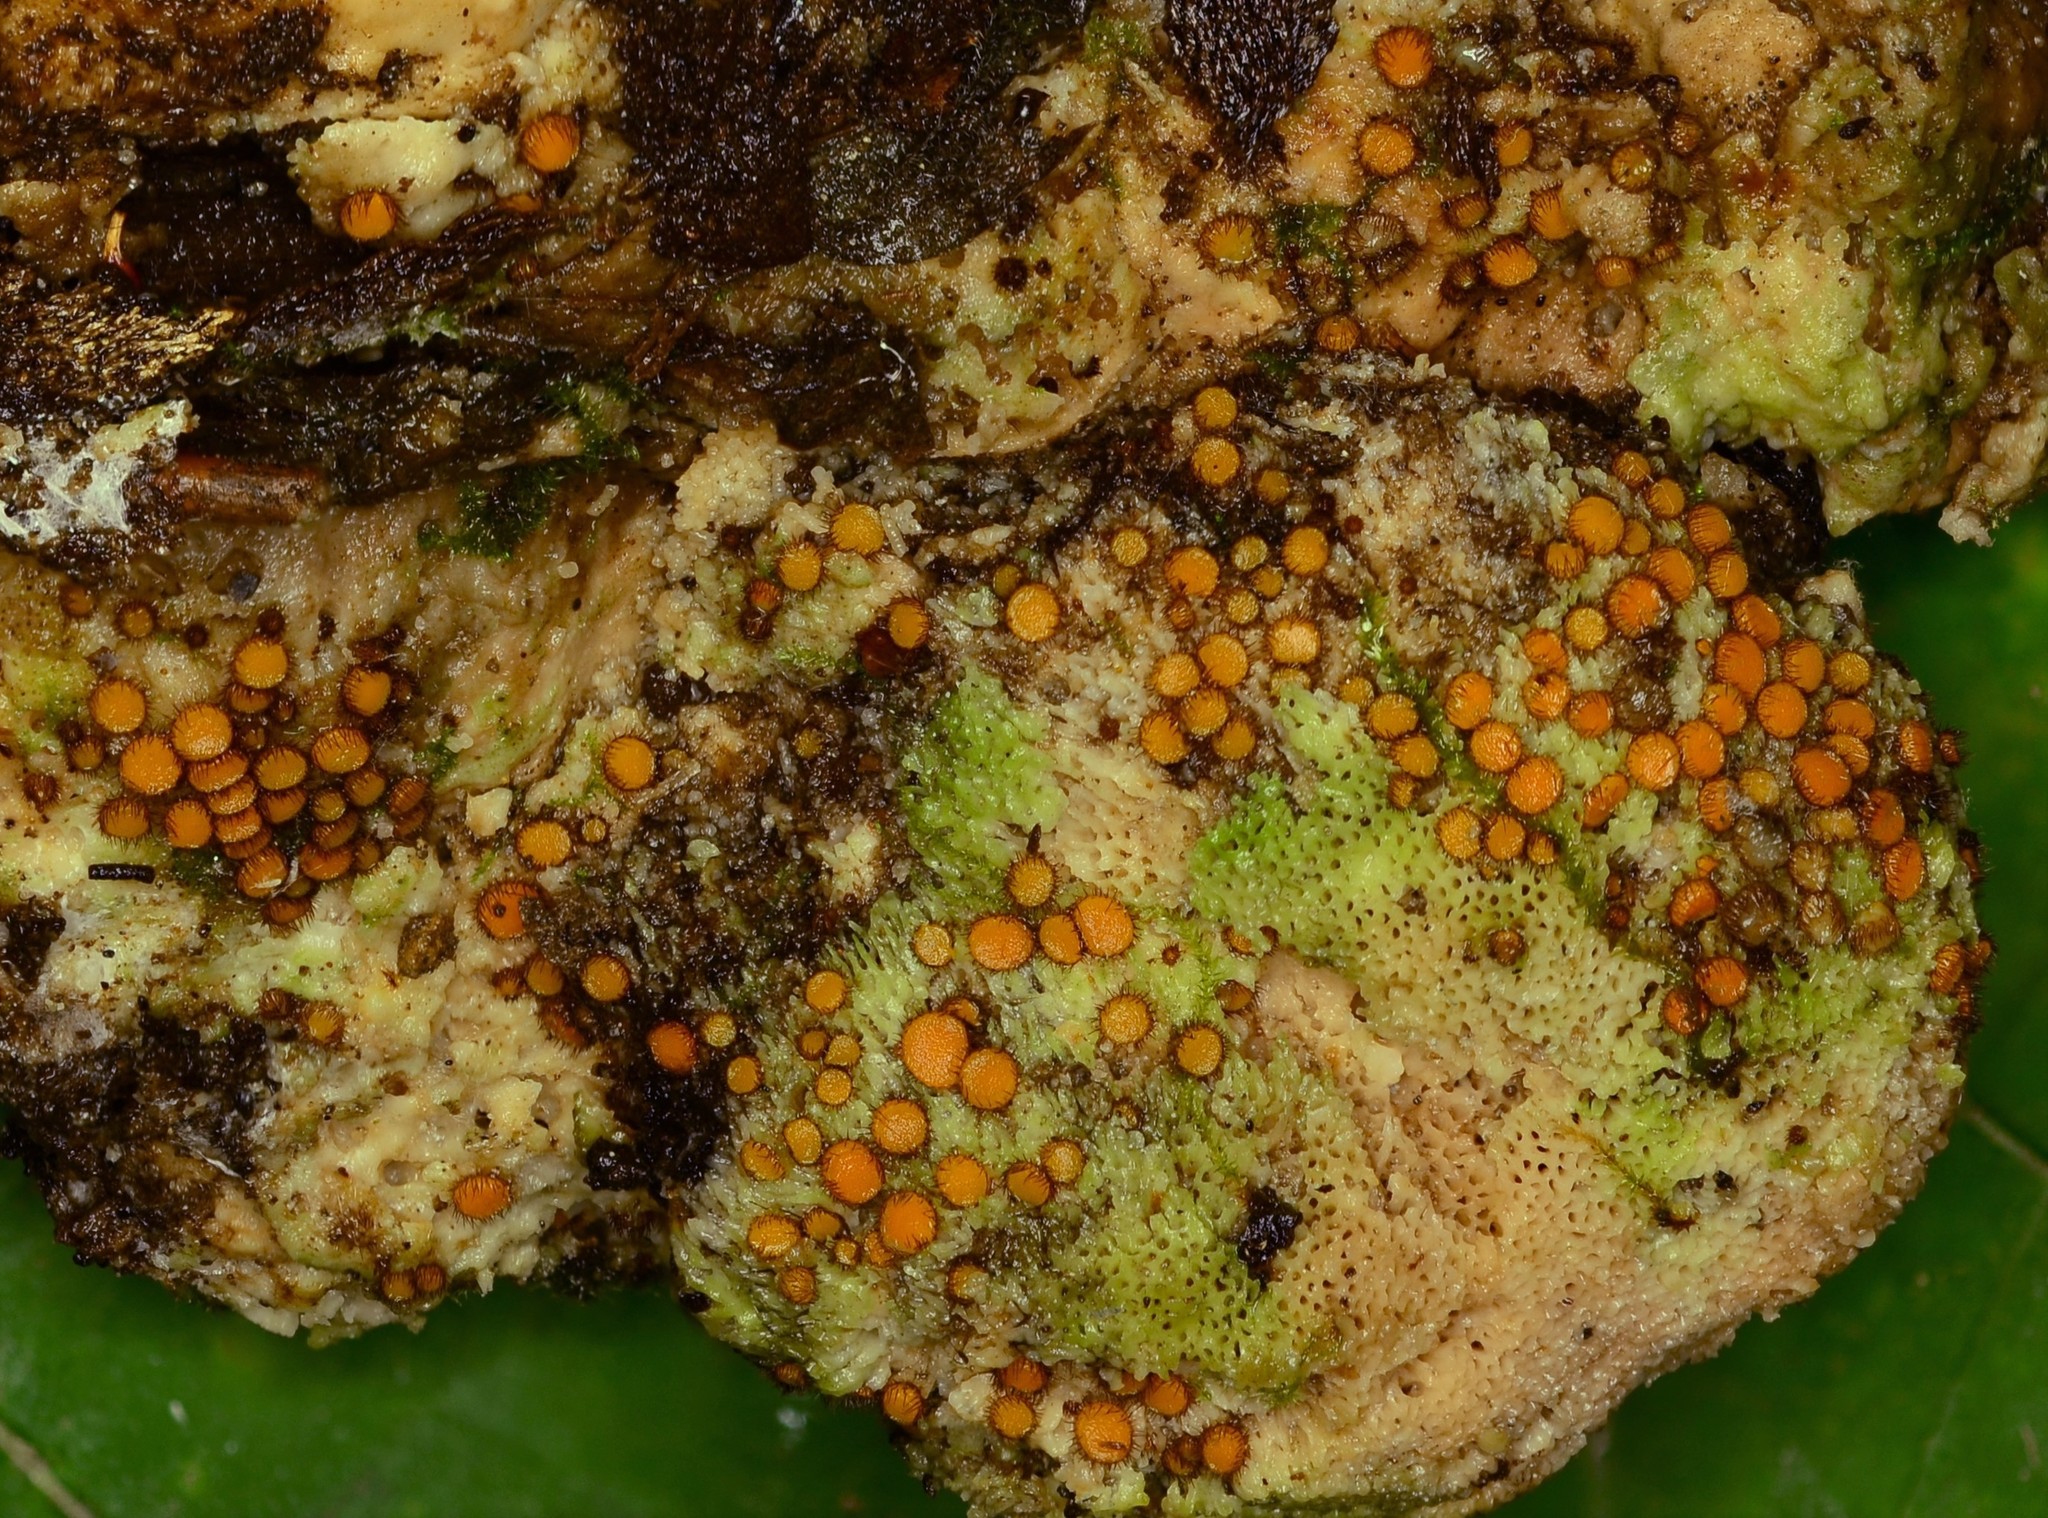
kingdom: Fungi
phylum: Ascomycota
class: Pezizomycetes
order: Pezizales
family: Pyronemataceae
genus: Scutellinia
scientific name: Scutellinia setosa
